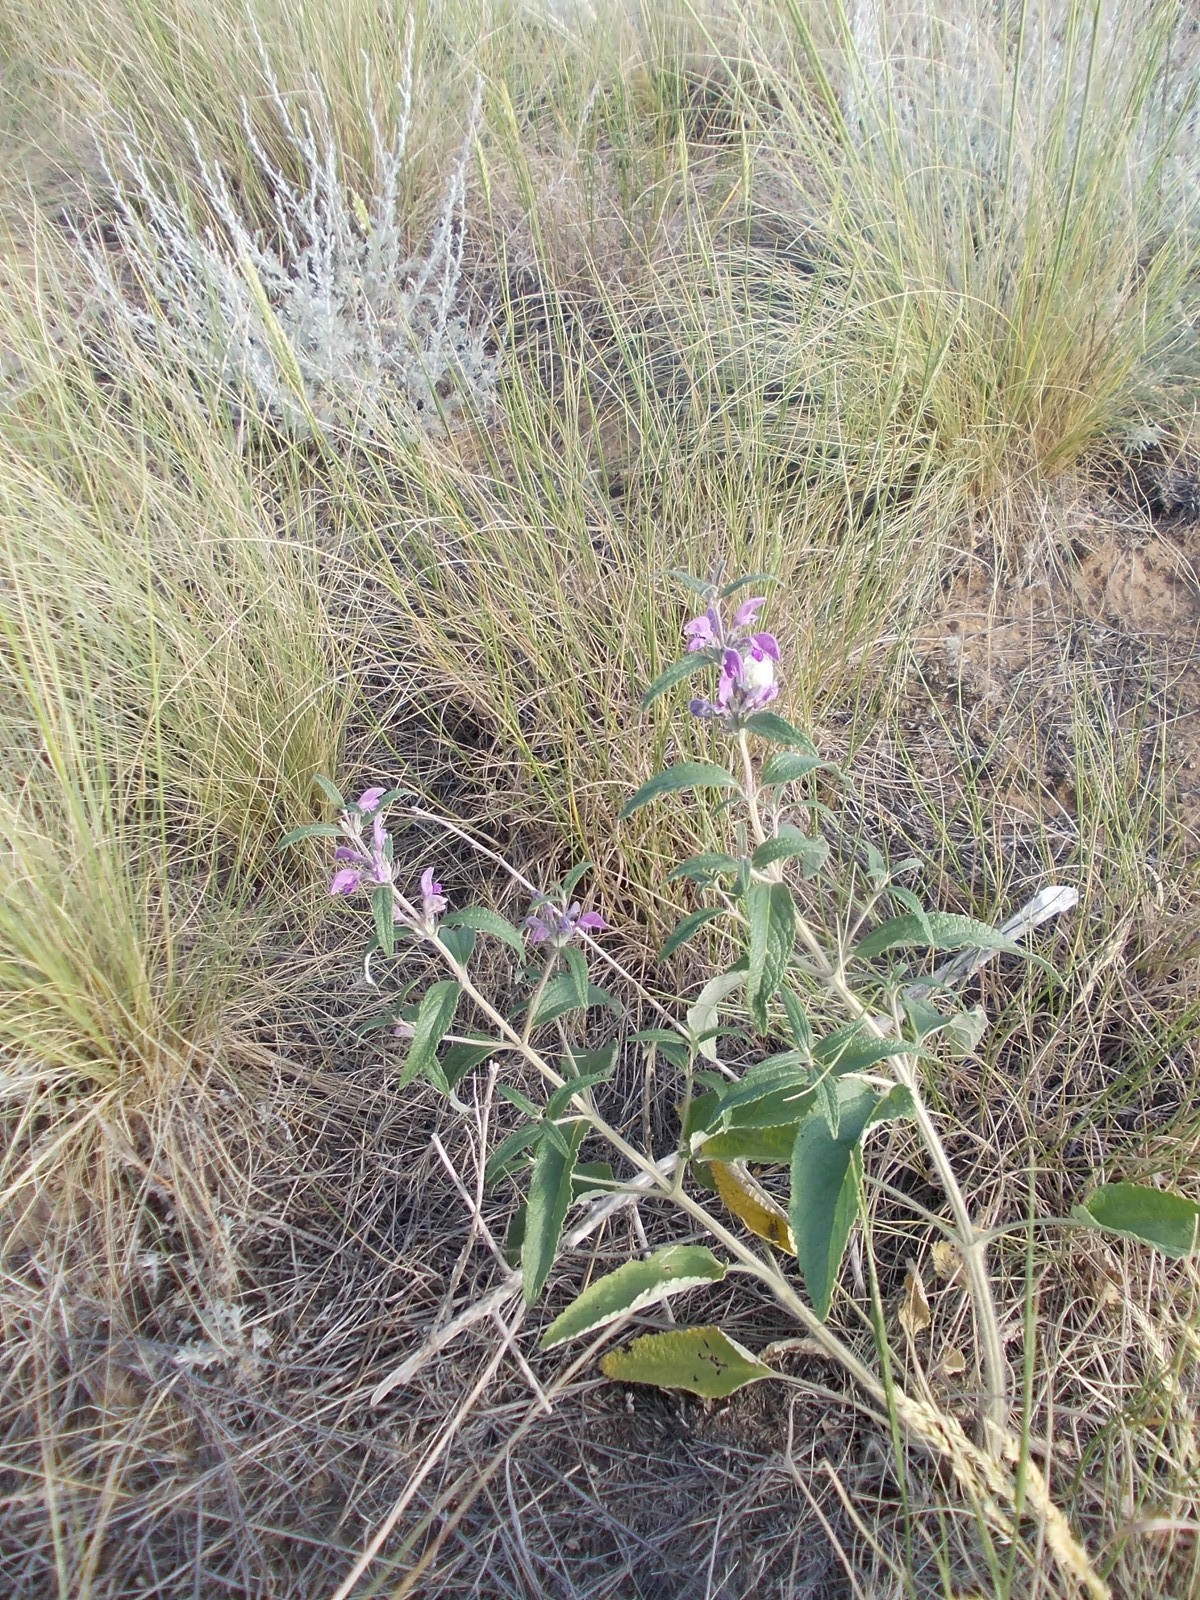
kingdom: Plantae
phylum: Tracheophyta
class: Magnoliopsida
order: Lamiales
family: Lamiaceae
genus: Phlomis
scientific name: Phlomis herba-venti
